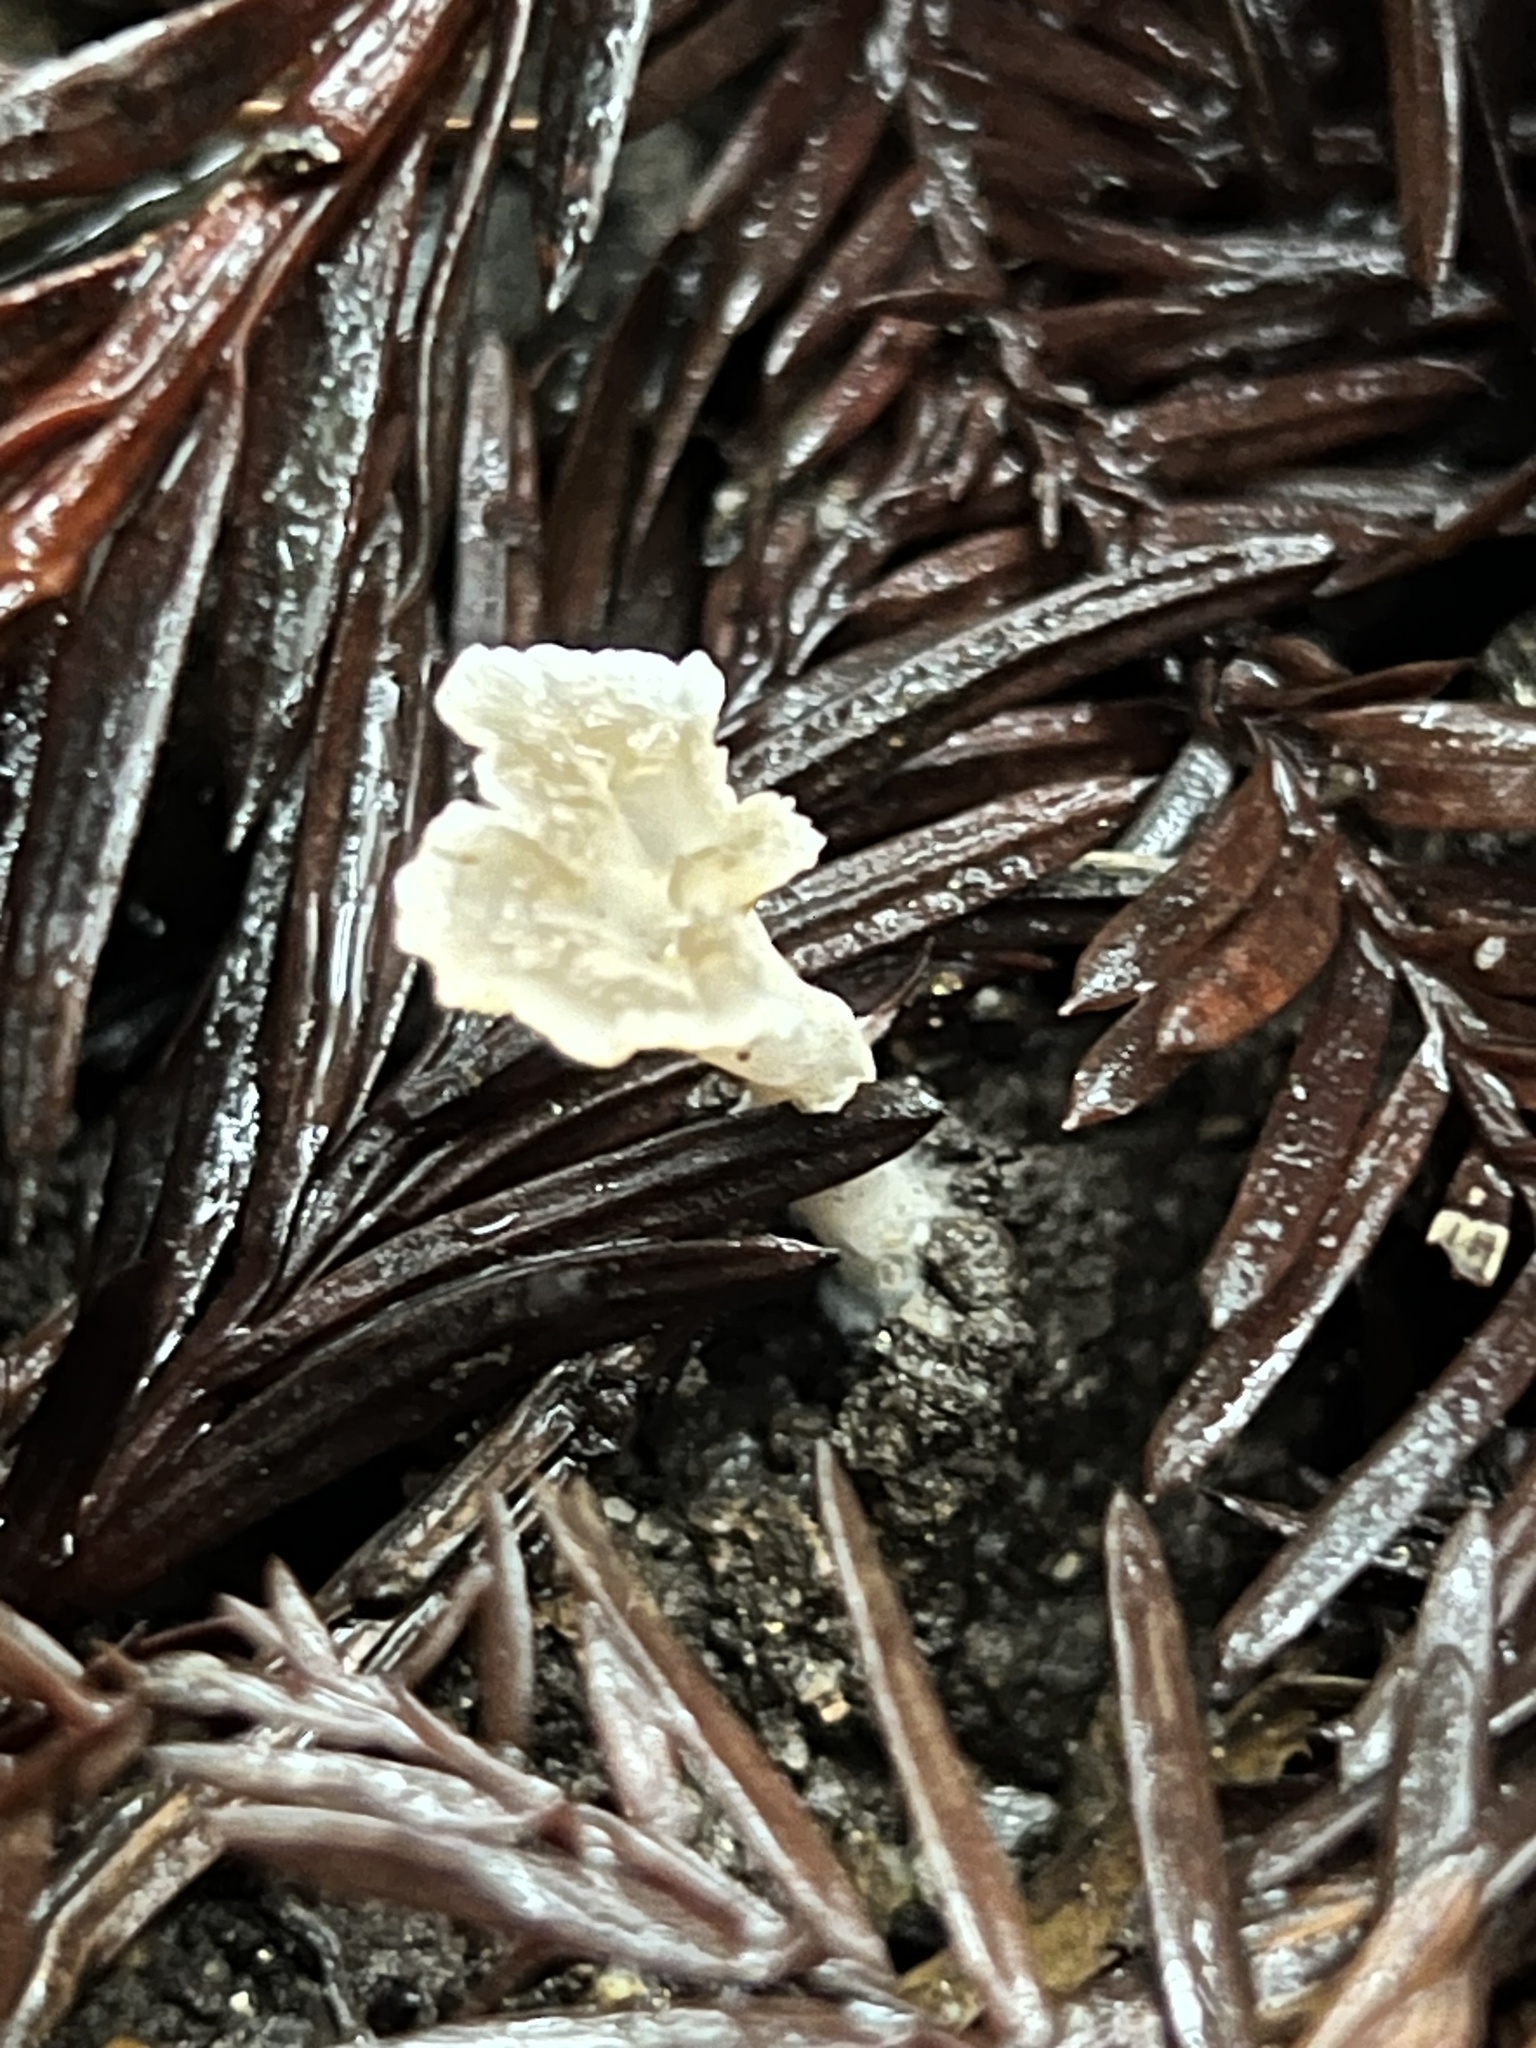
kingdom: Fungi
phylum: Basidiomycota
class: Agaricomycetes
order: Hymenochaetales
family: Rickenellaceae
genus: Cotylidia
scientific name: Cotylidia diaphana
